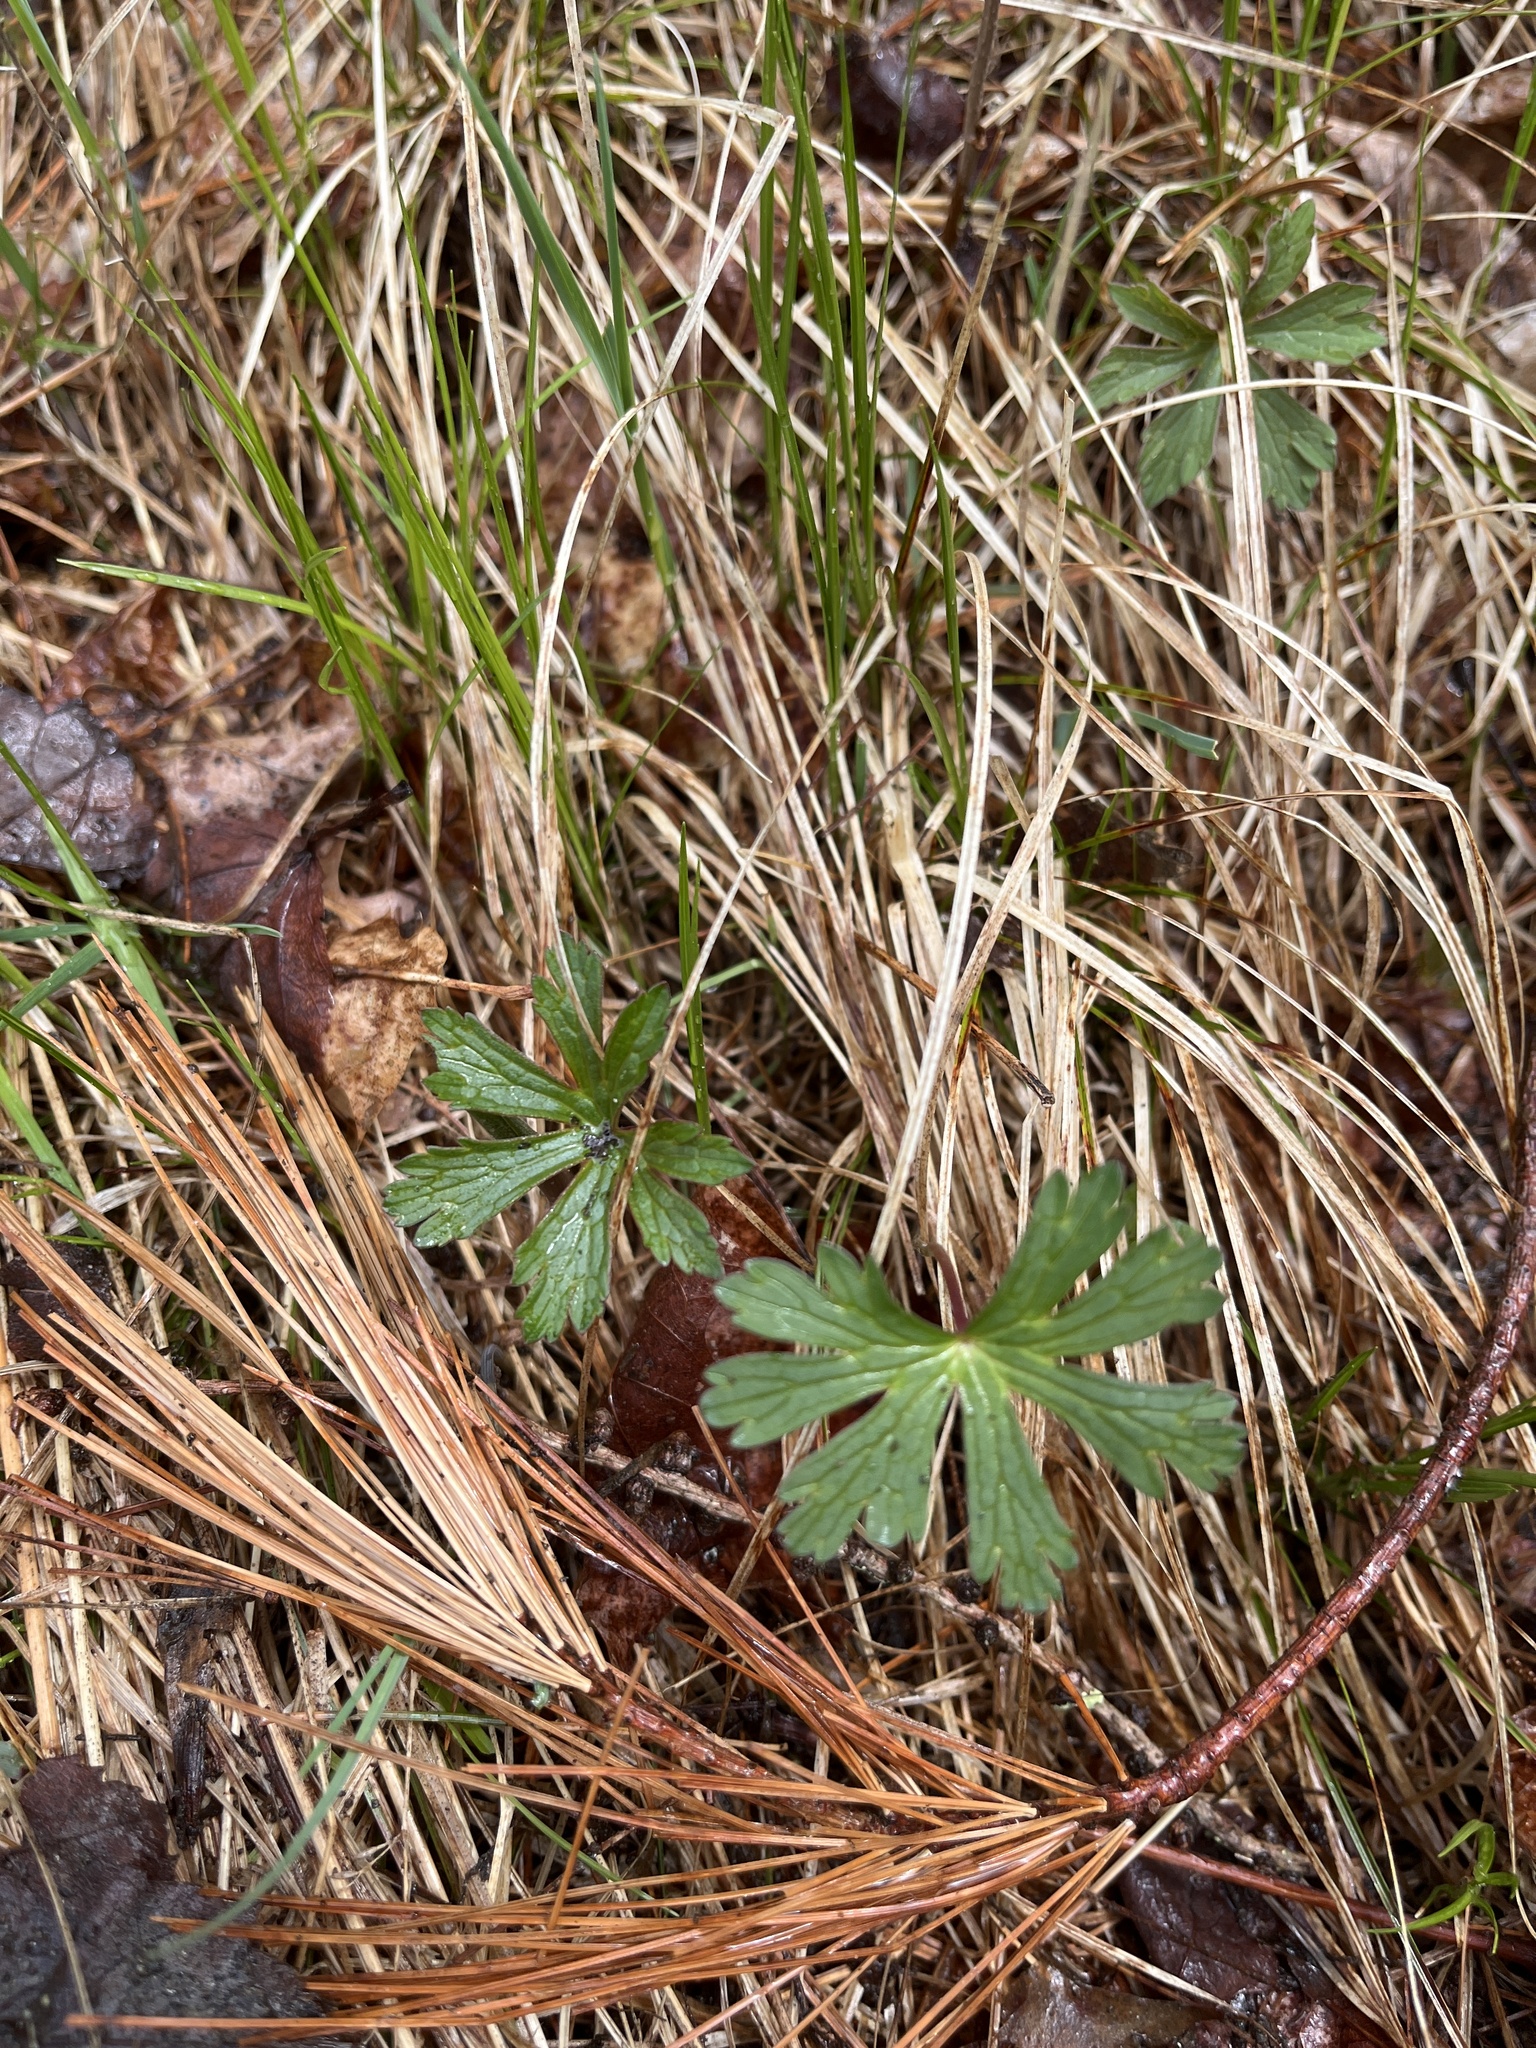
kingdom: Plantae
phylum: Tracheophyta
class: Magnoliopsida
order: Geraniales
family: Geraniaceae
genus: Geranium
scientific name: Geranium maculatum
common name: Spotted geranium
